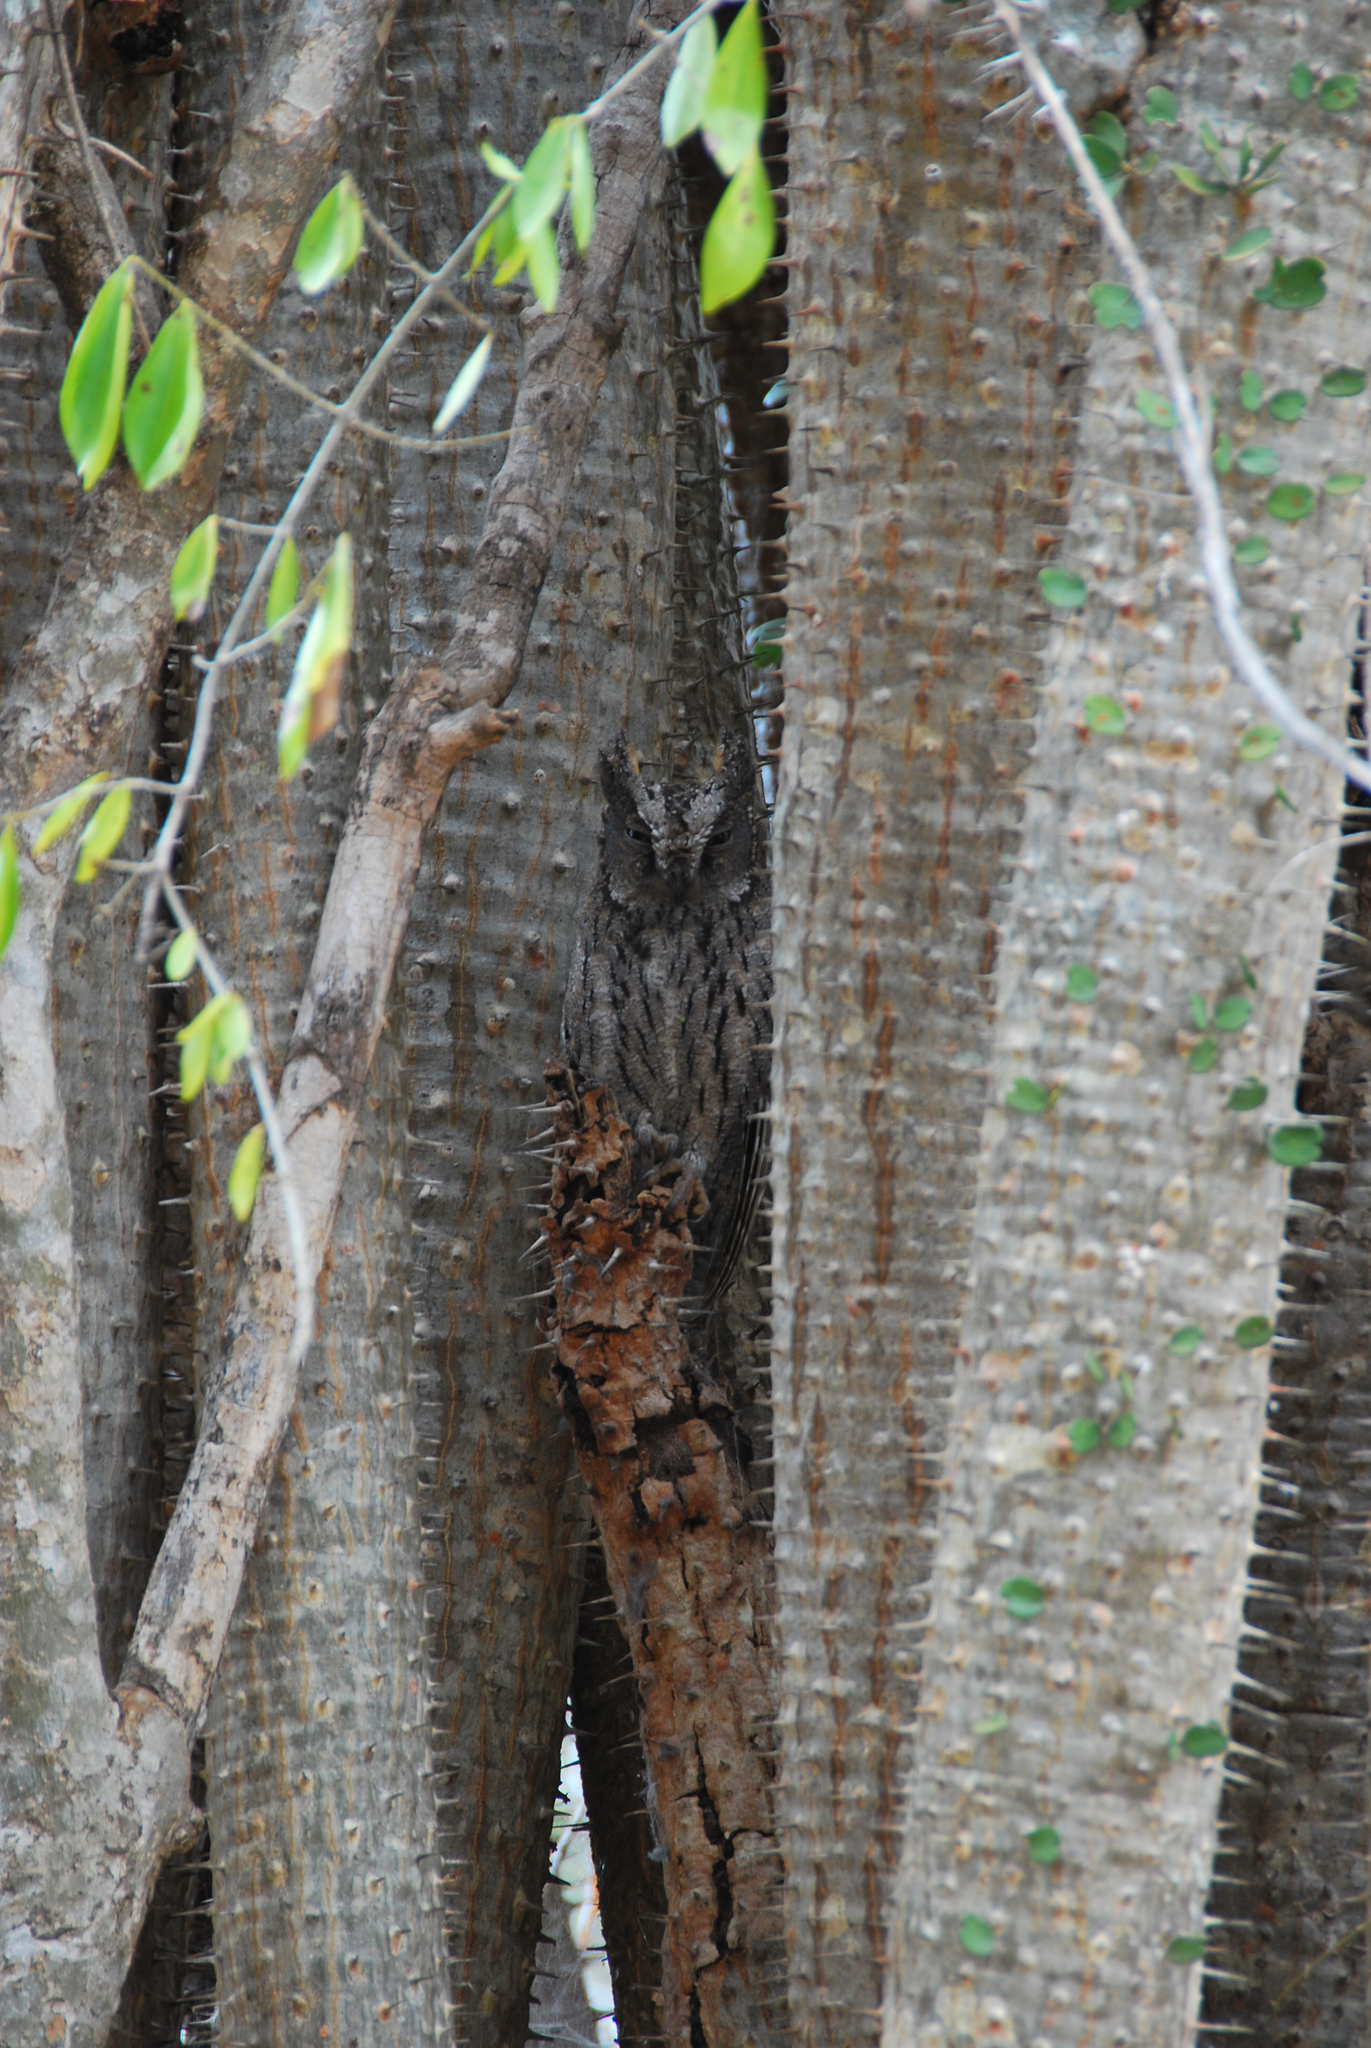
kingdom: Plantae
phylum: Tracheophyta
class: Magnoliopsida
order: Caryophyllales
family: Didiereaceae
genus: Alluaudia
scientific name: Alluaudia ascendens
